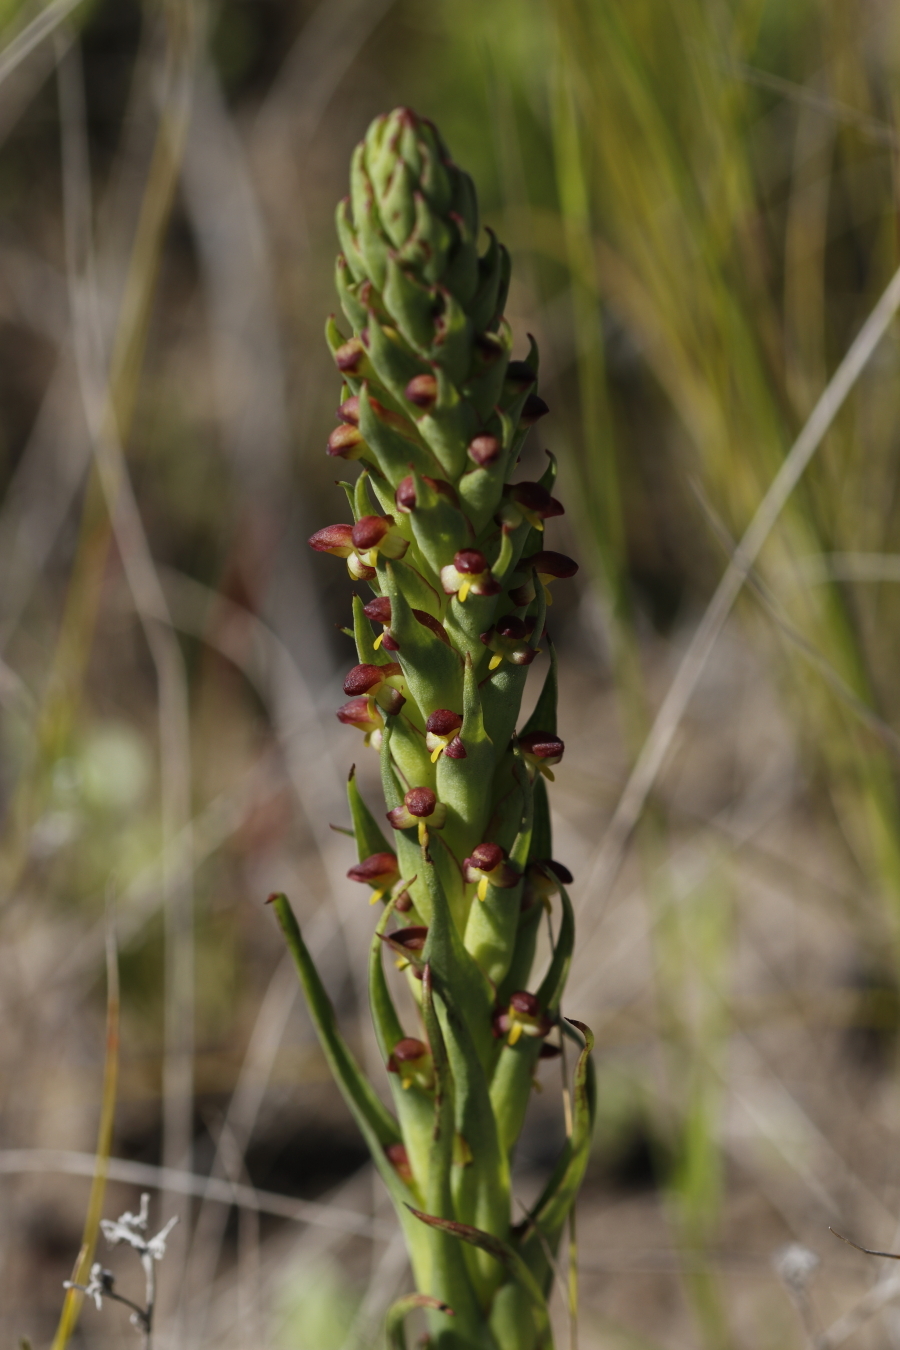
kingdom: Plantae
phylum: Tracheophyta
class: Liliopsida
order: Asparagales
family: Orchidaceae
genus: Disa
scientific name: Disa bracteata
